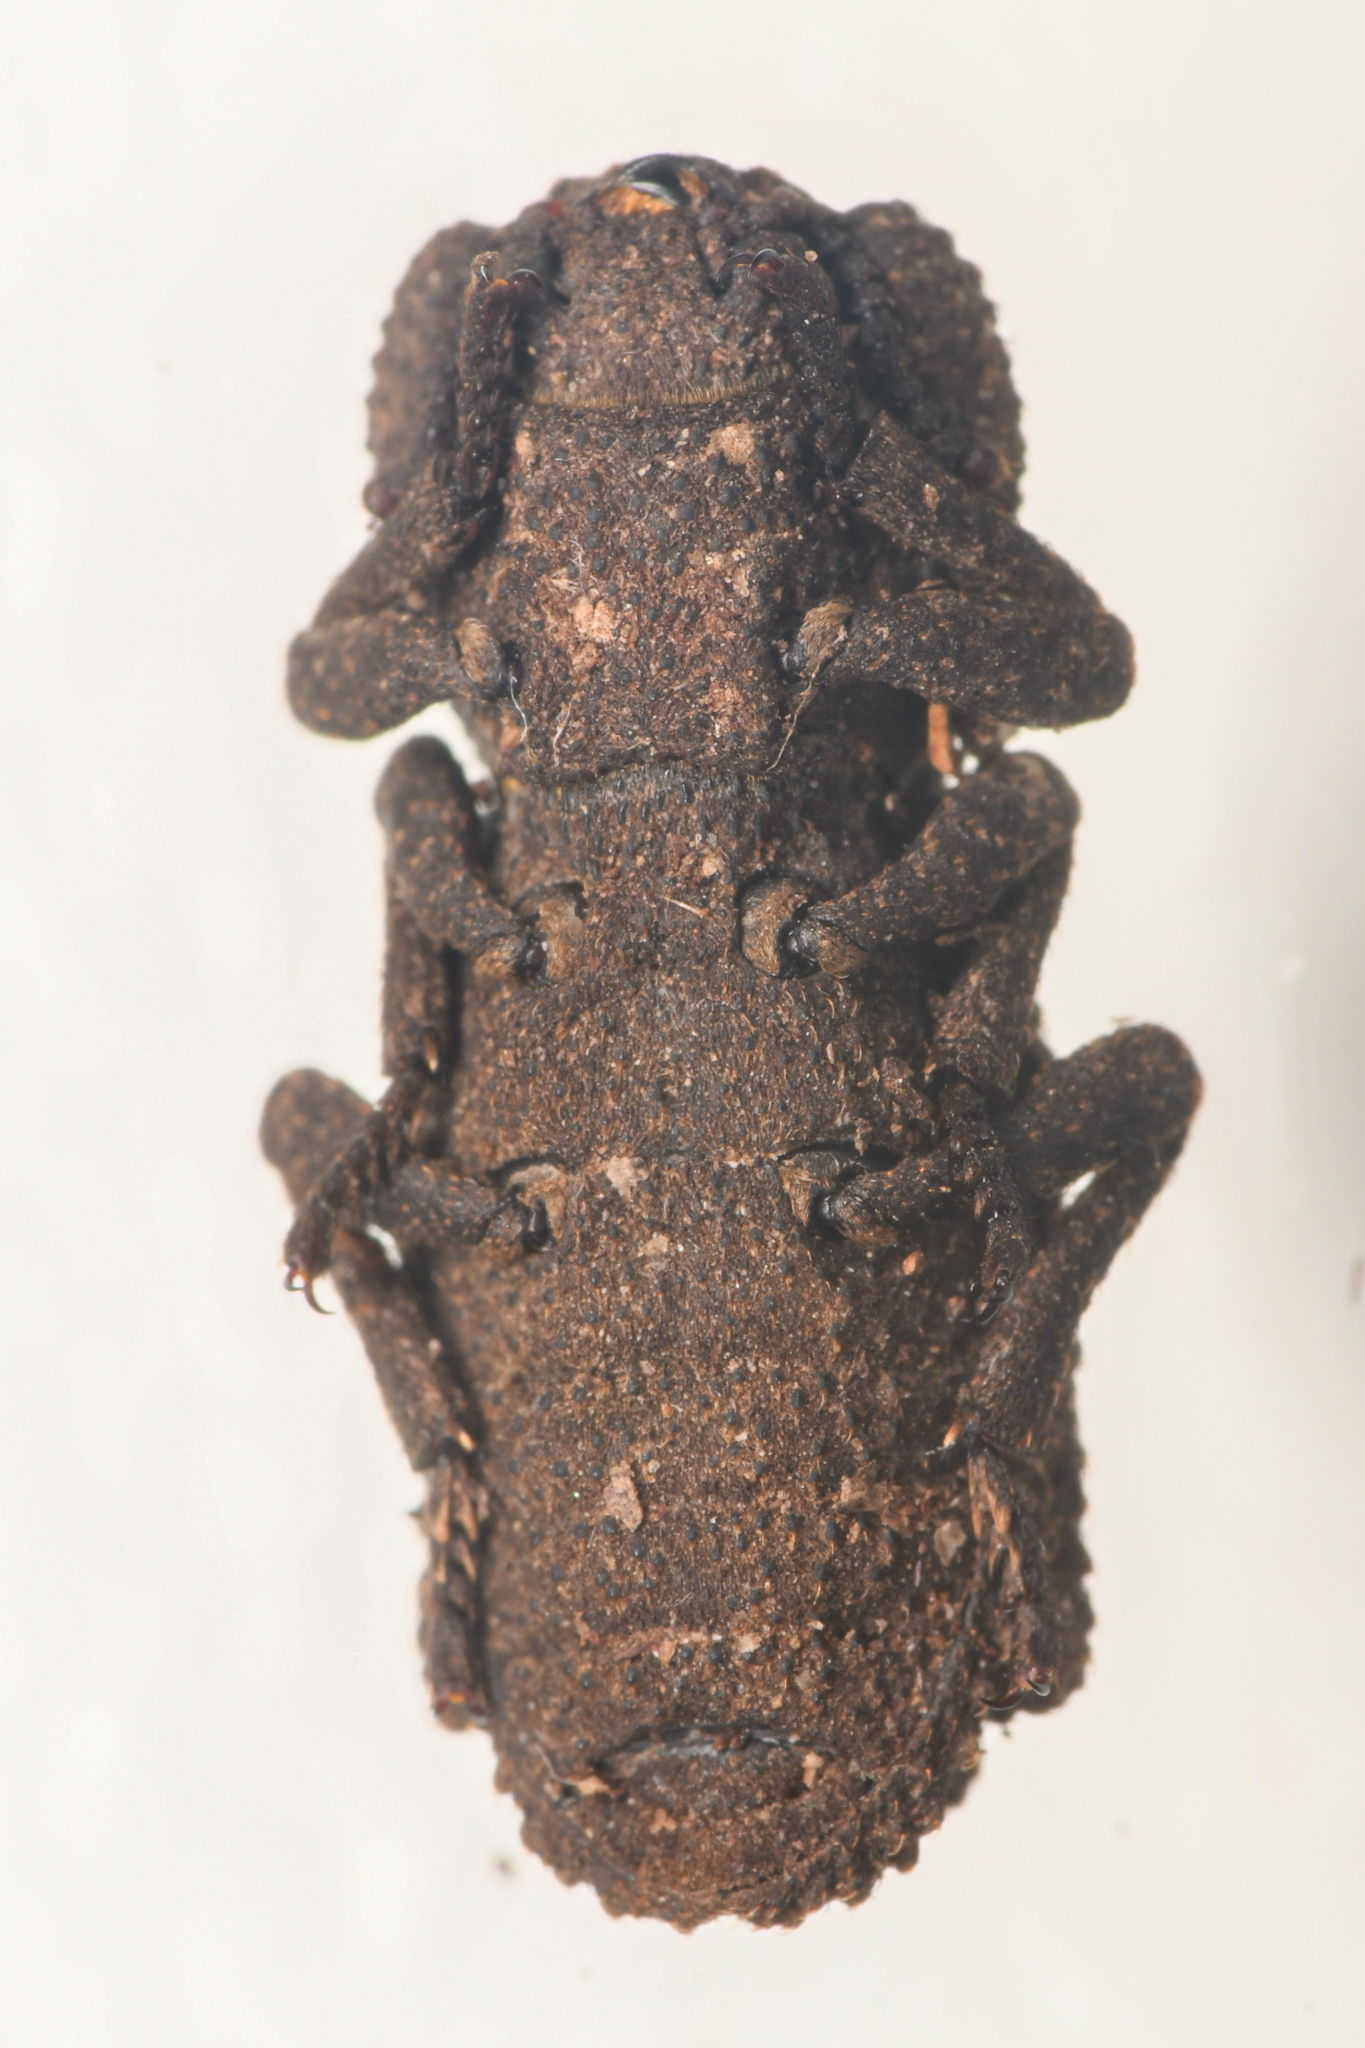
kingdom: Animalia
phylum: Arthropoda
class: Insecta
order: Coleoptera
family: Zopheridae
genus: Phloeodes
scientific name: Phloeodes plicatus
